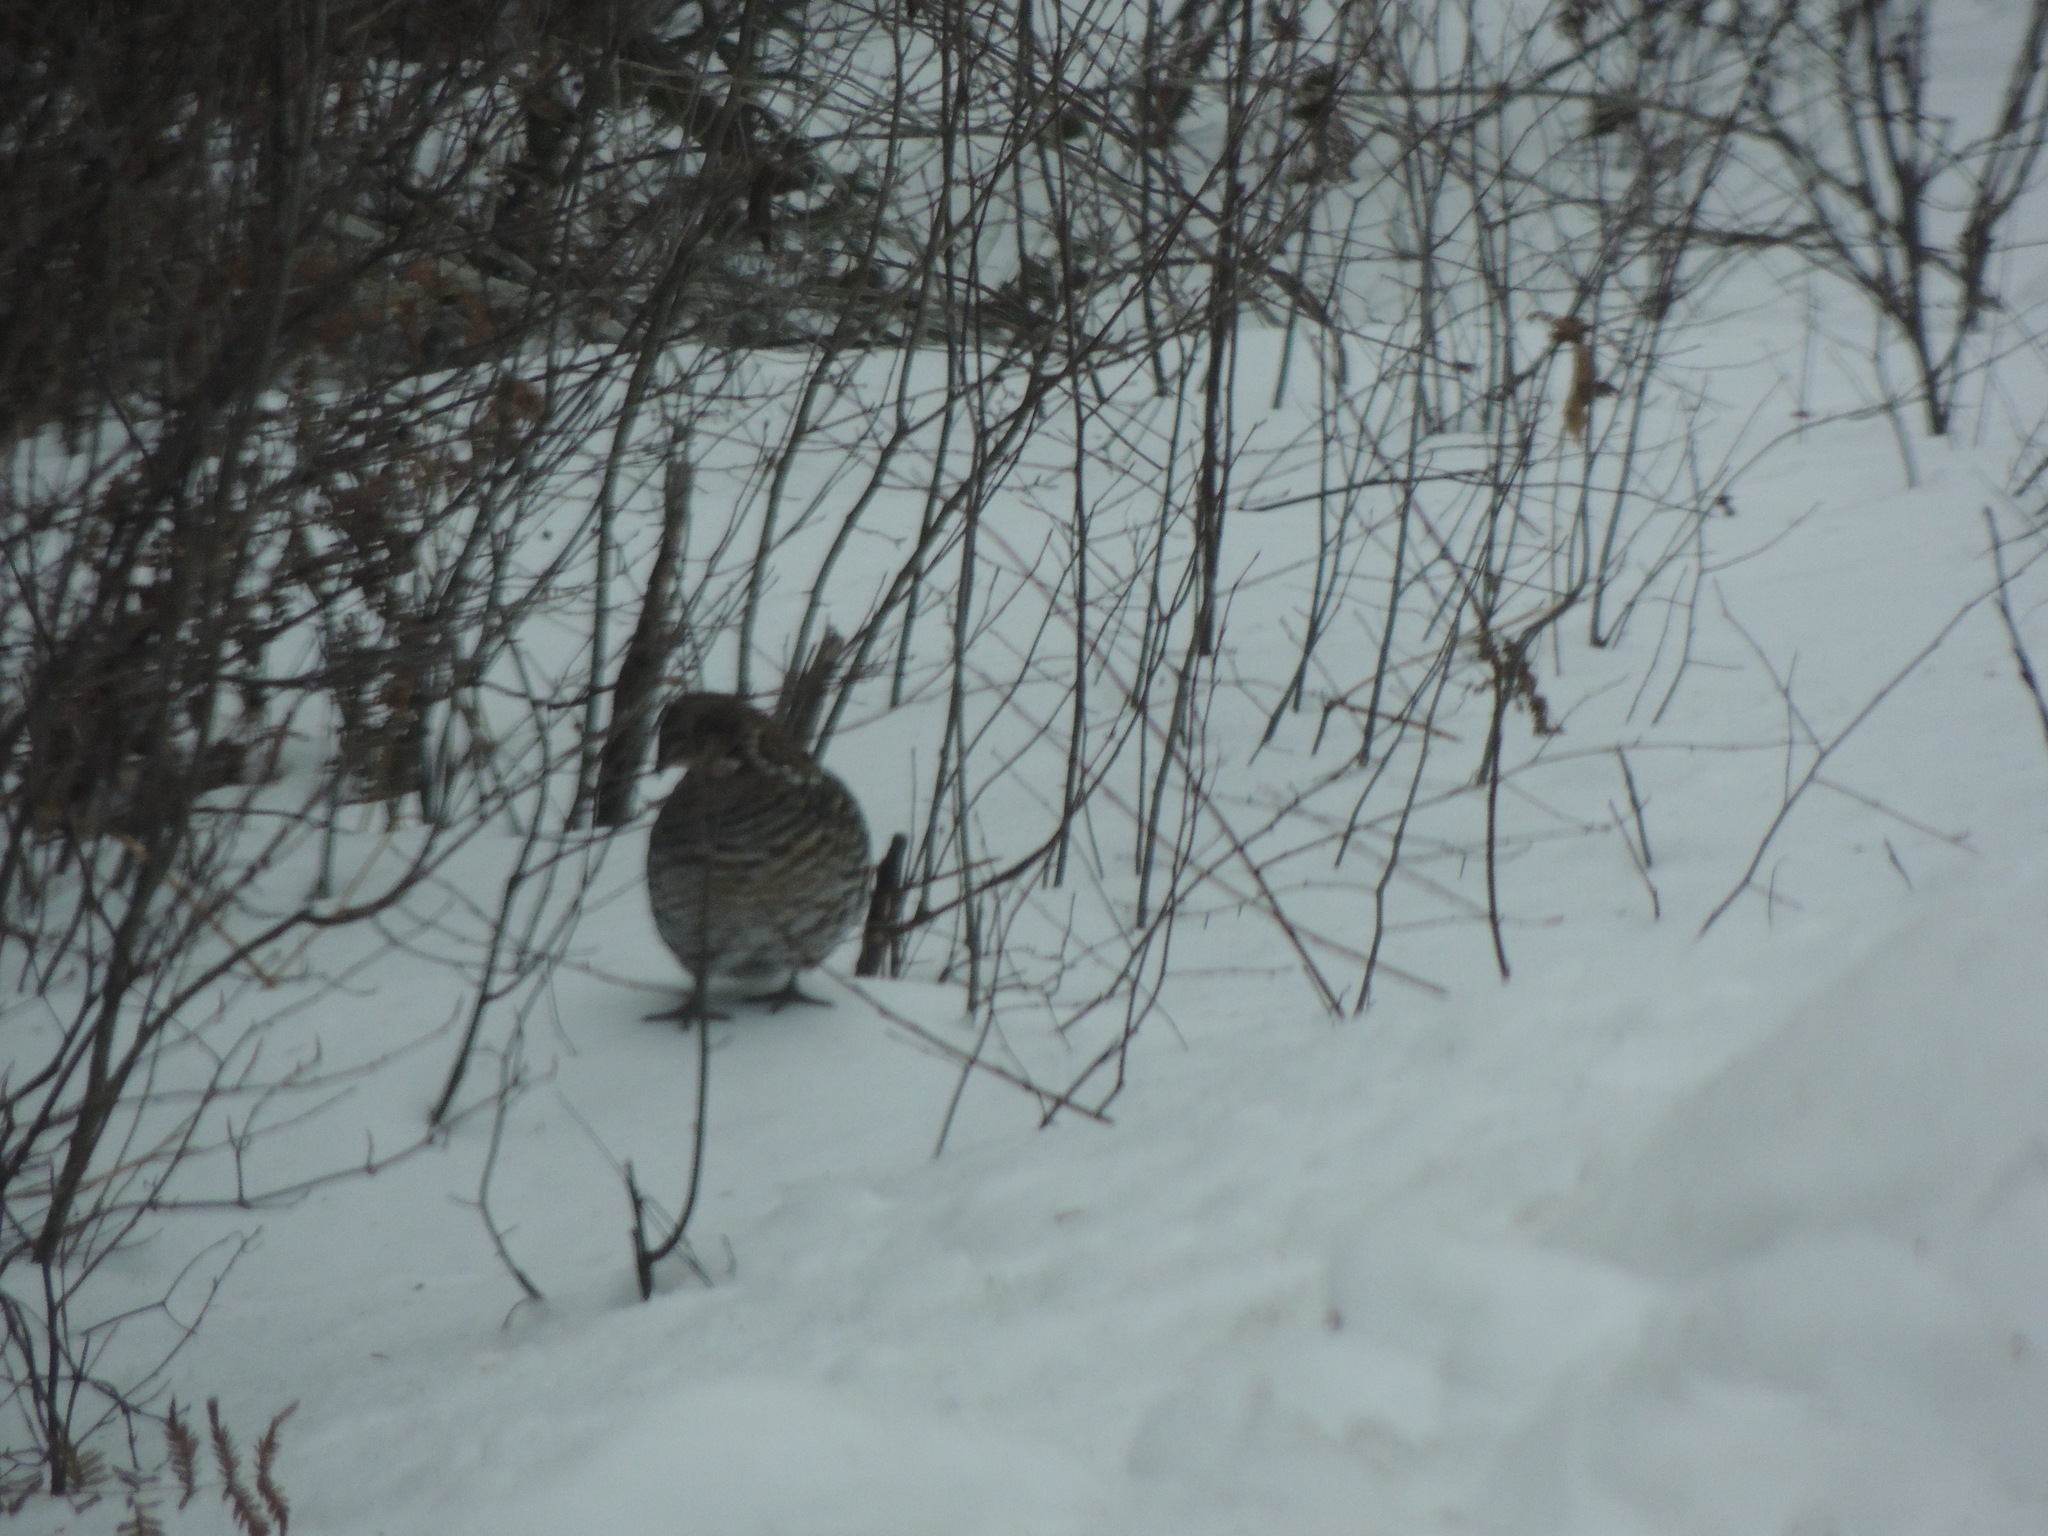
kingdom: Animalia
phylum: Chordata
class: Aves
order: Galliformes
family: Phasianidae
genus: Bonasa
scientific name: Bonasa umbellus
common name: Ruffed grouse
